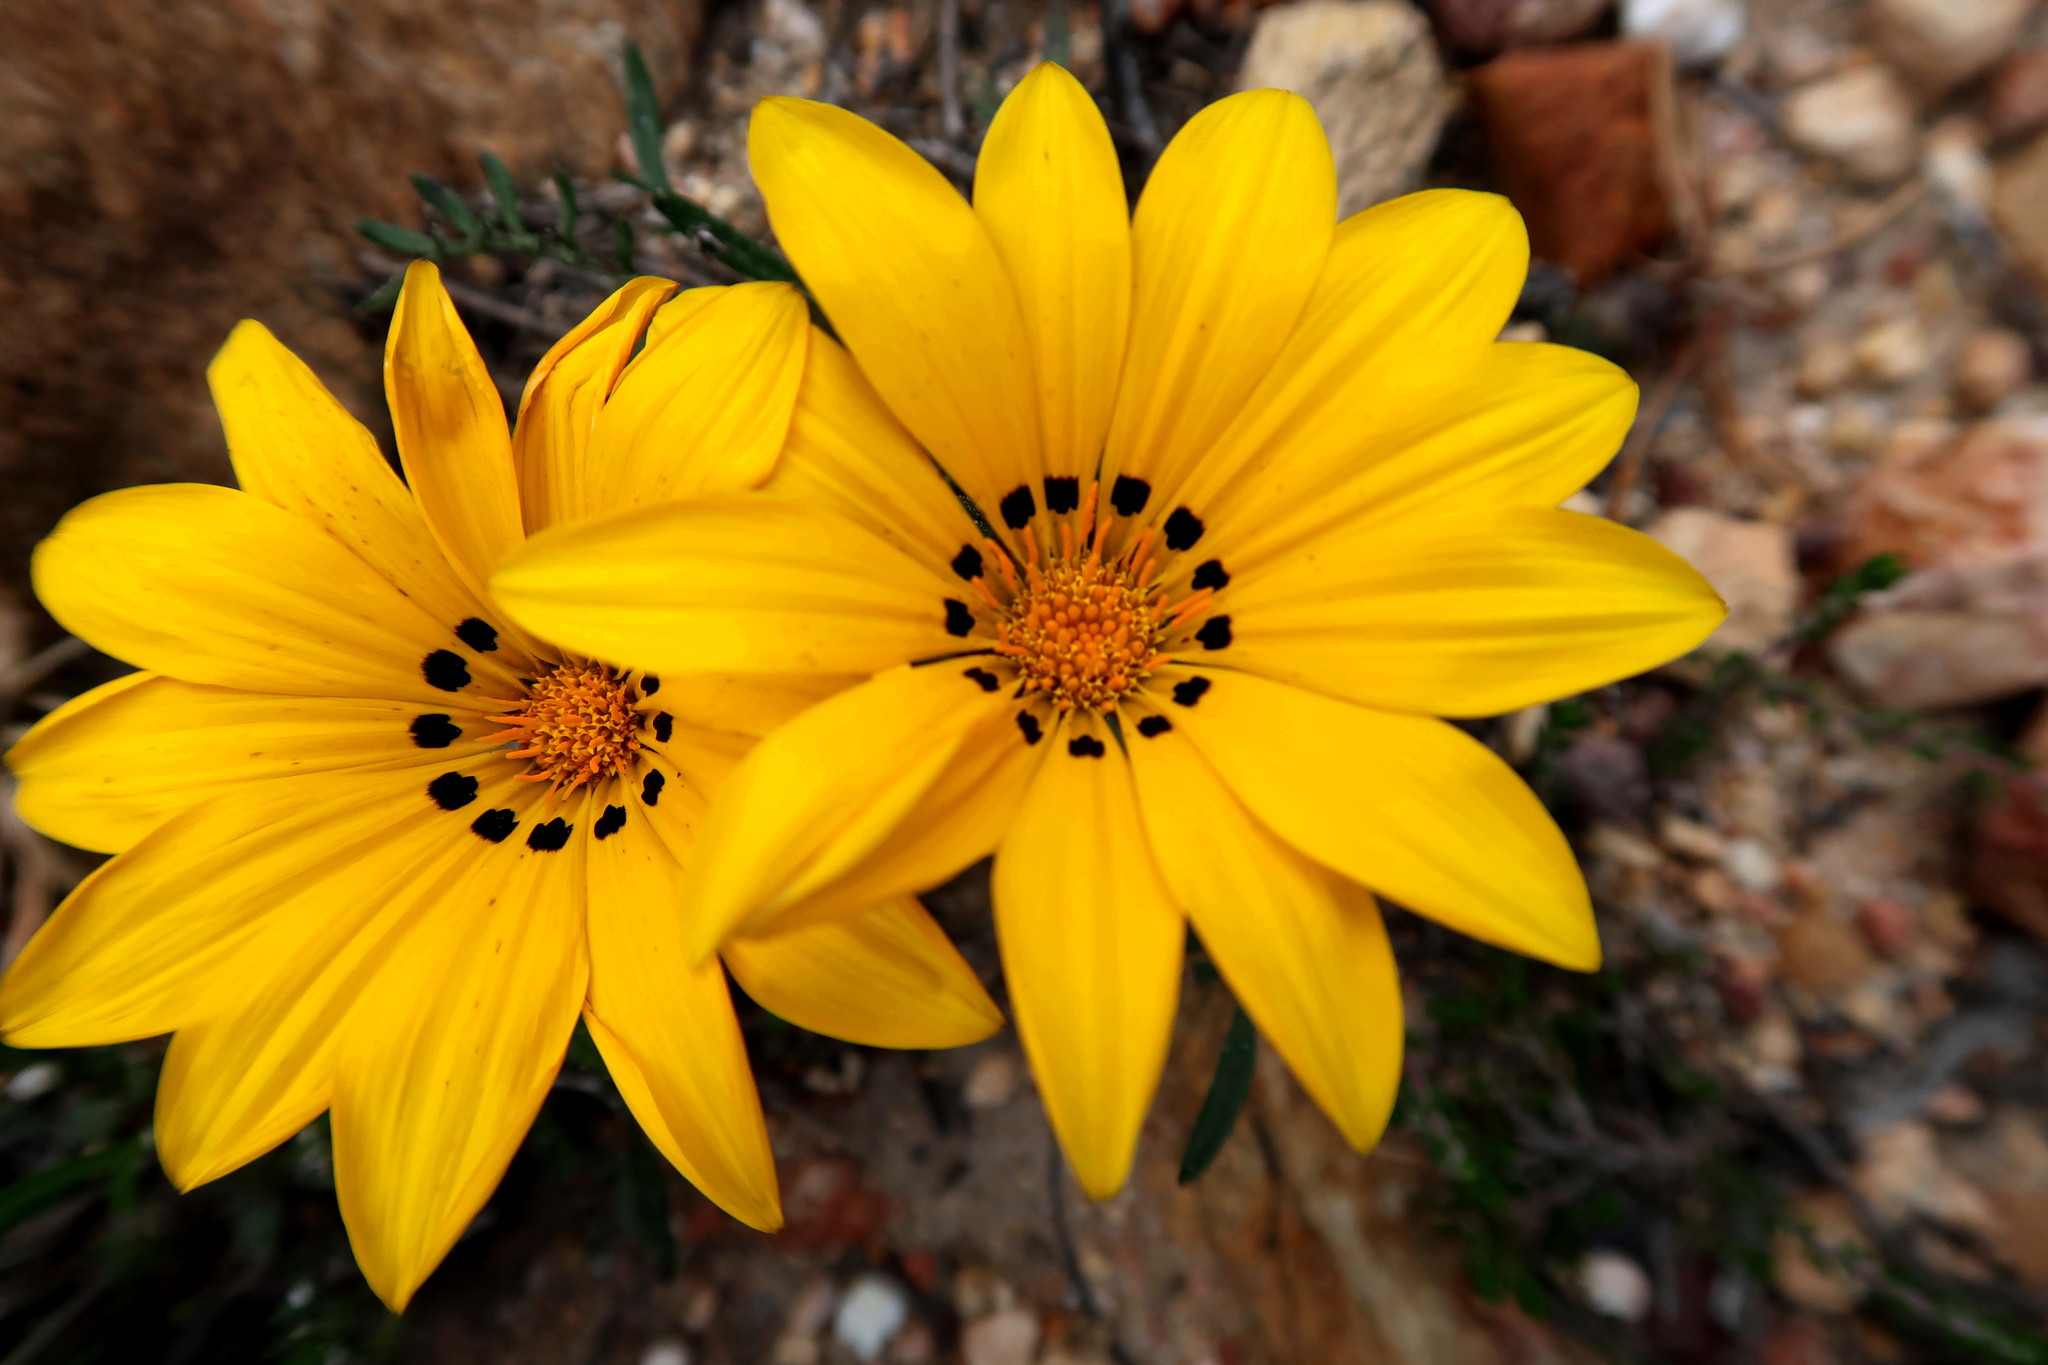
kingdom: Plantae
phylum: Tracheophyta
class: Magnoliopsida
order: Asterales
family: Asteraceae
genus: Gazania
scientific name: Gazania krebsiana
